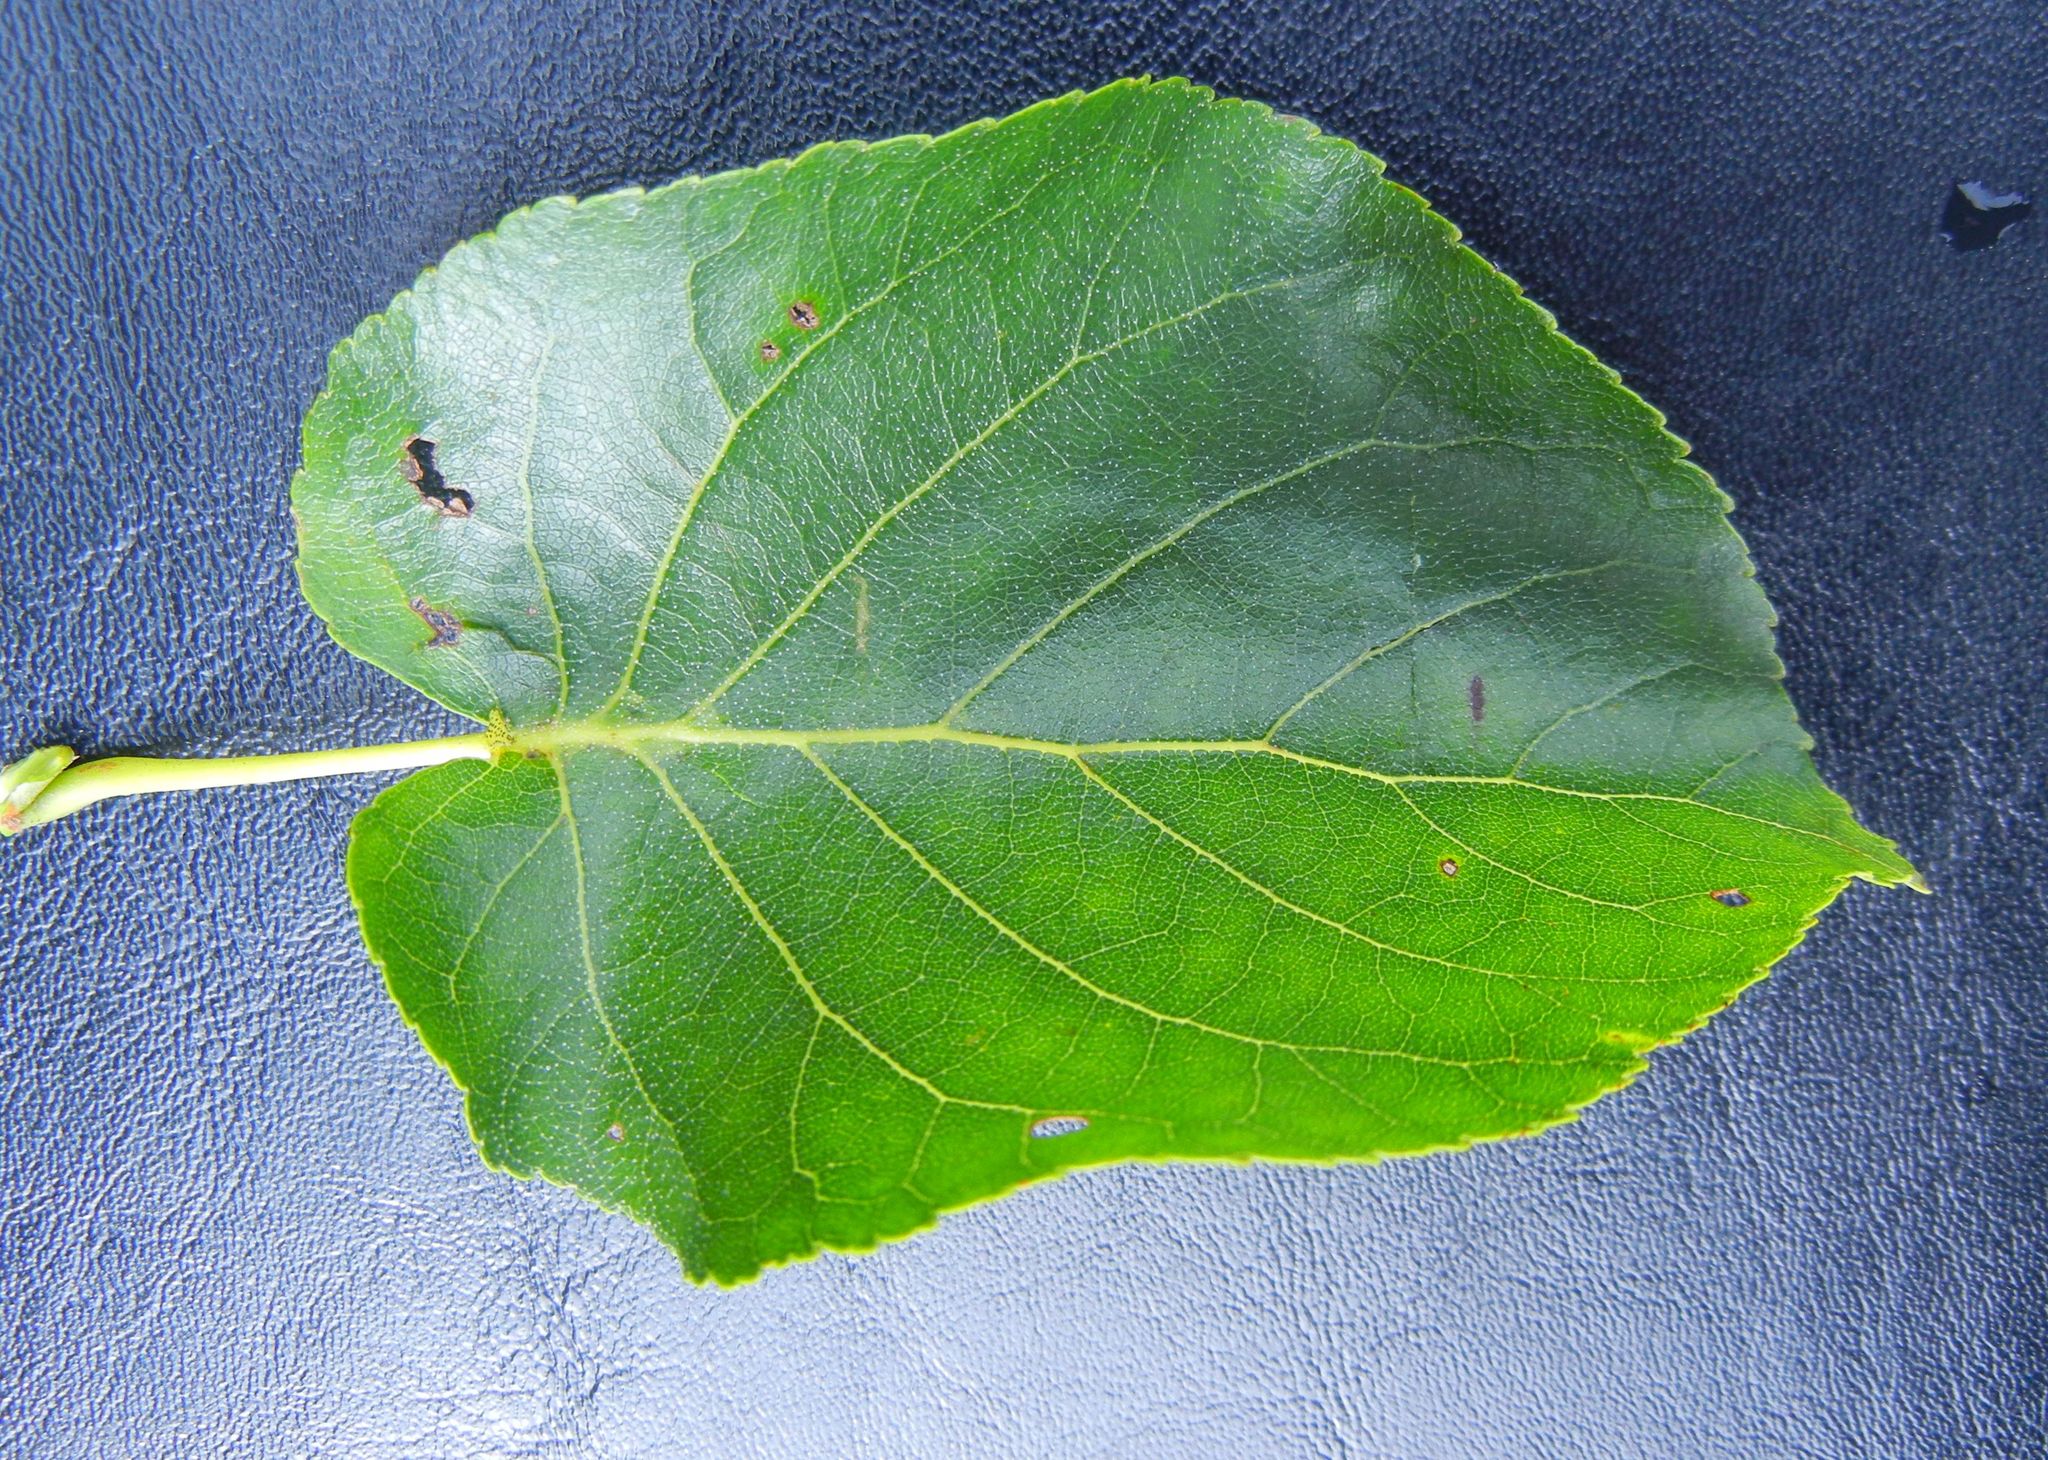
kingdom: Plantae
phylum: Tracheophyta
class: Magnoliopsida
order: Fagales
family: Betulaceae
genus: Alnus
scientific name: Alnus cordata
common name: Italian alder
